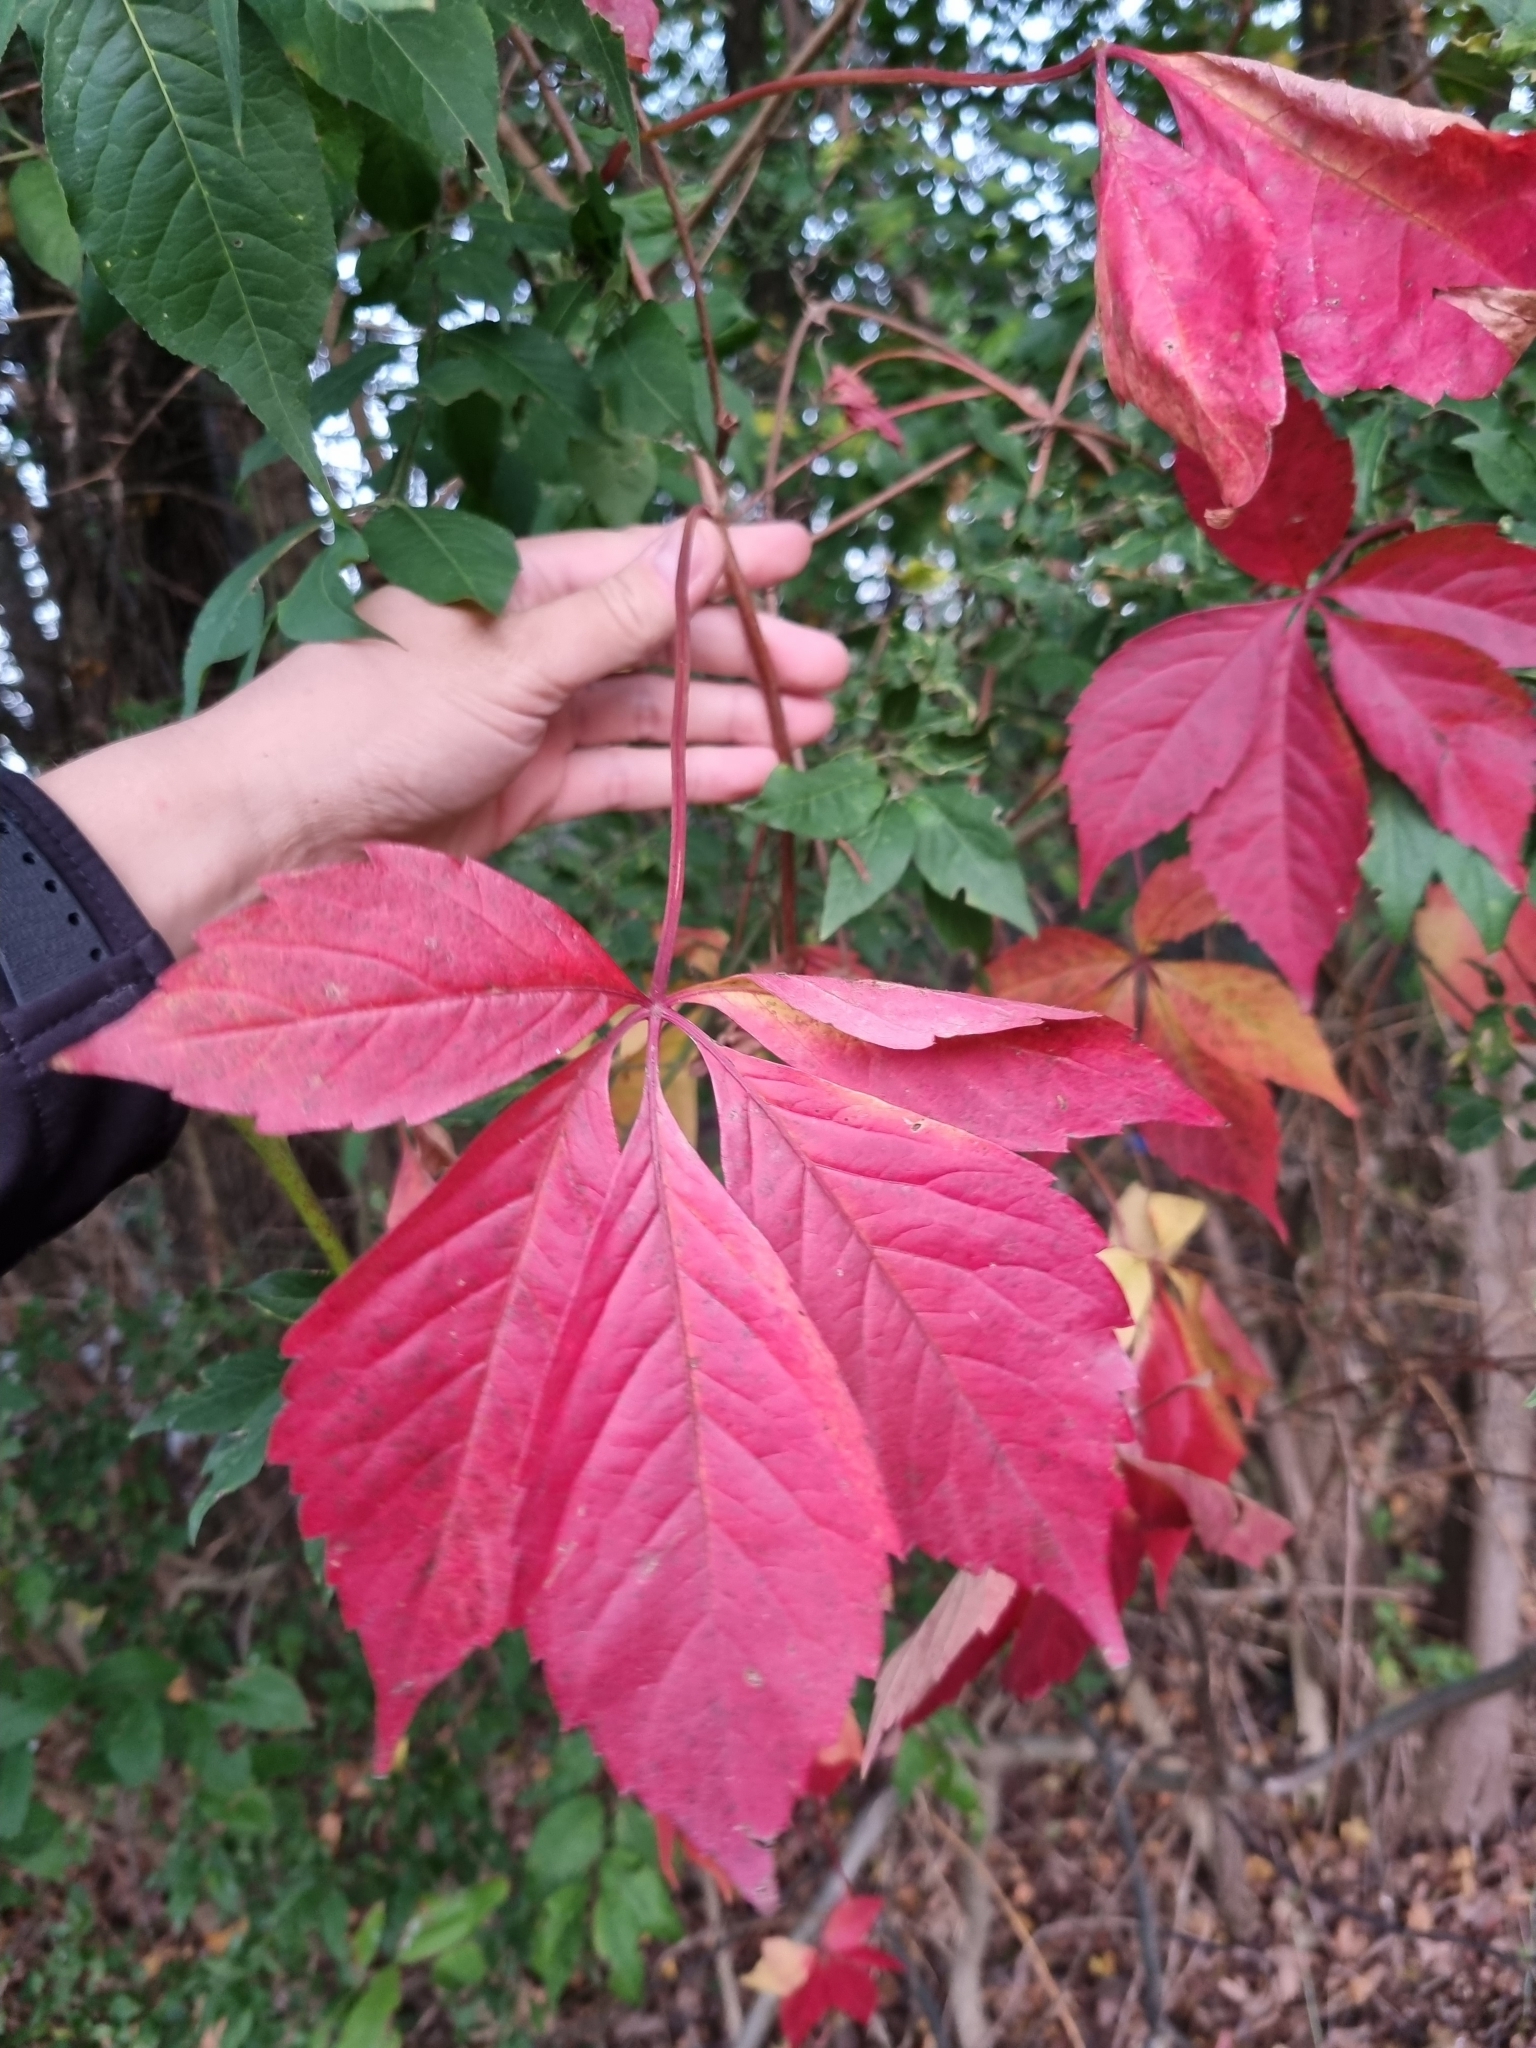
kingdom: Plantae
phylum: Tracheophyta
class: Magnoliopsida
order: Vitales
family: Vitaceae
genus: Parthenocissus
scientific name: Parthenocissus quinquefolia
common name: Virginia-creeper
